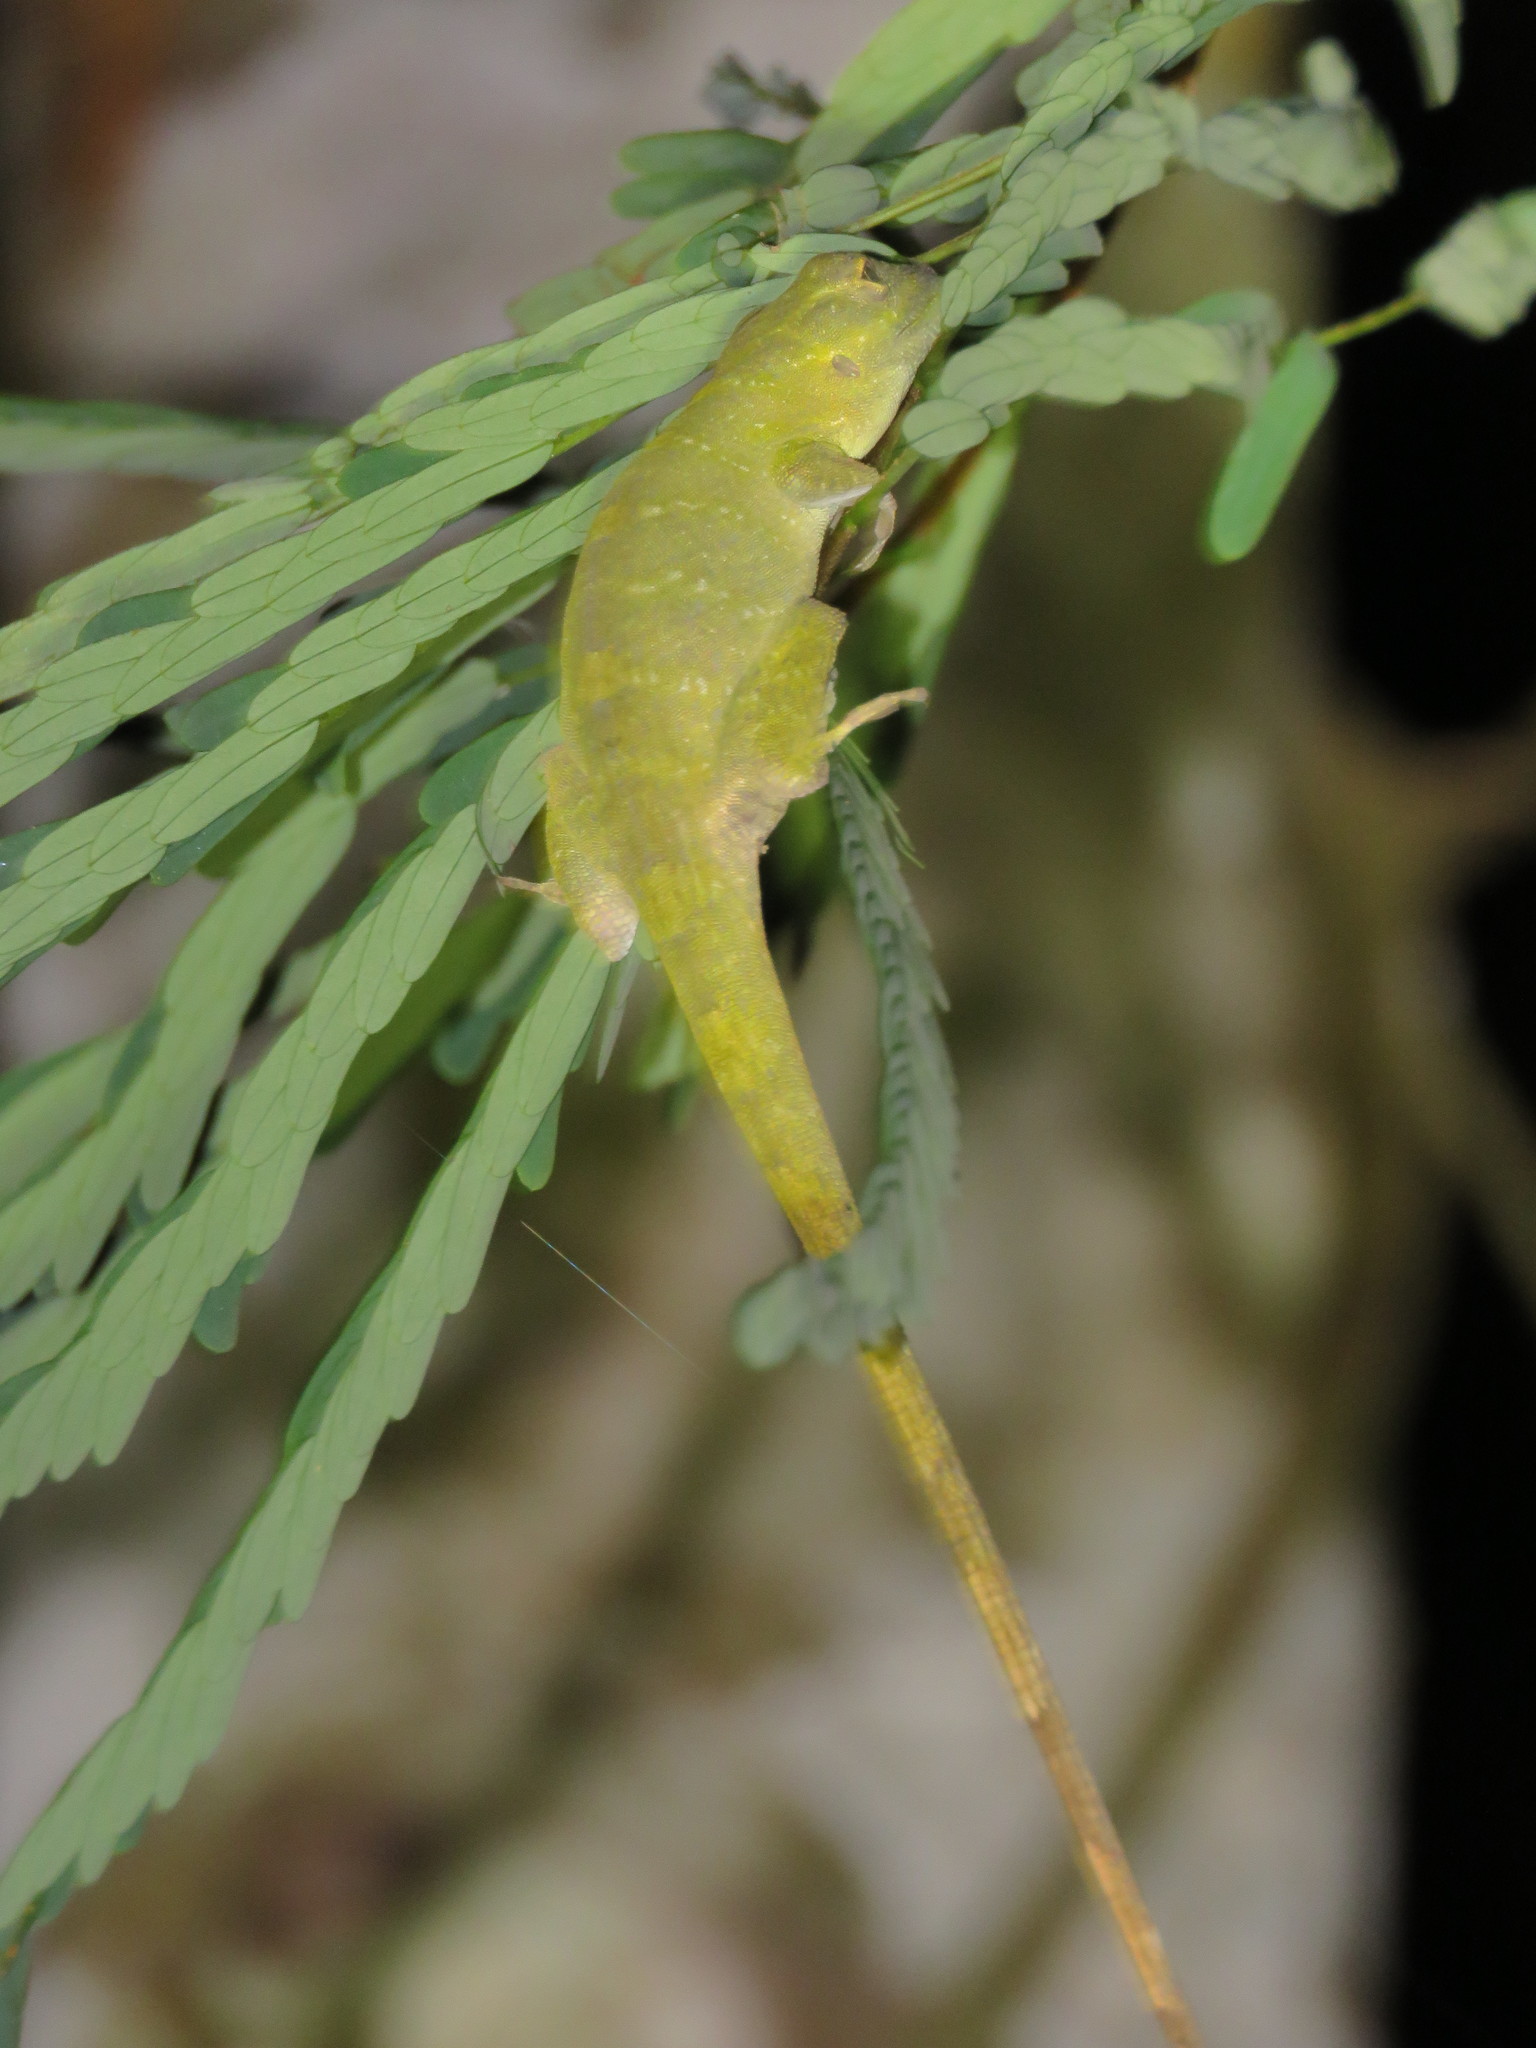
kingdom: Animalia
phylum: Chordata
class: Squamata
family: Dactyloidae
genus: Anolis
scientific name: Anolis punctatus
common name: Amazon green anole
